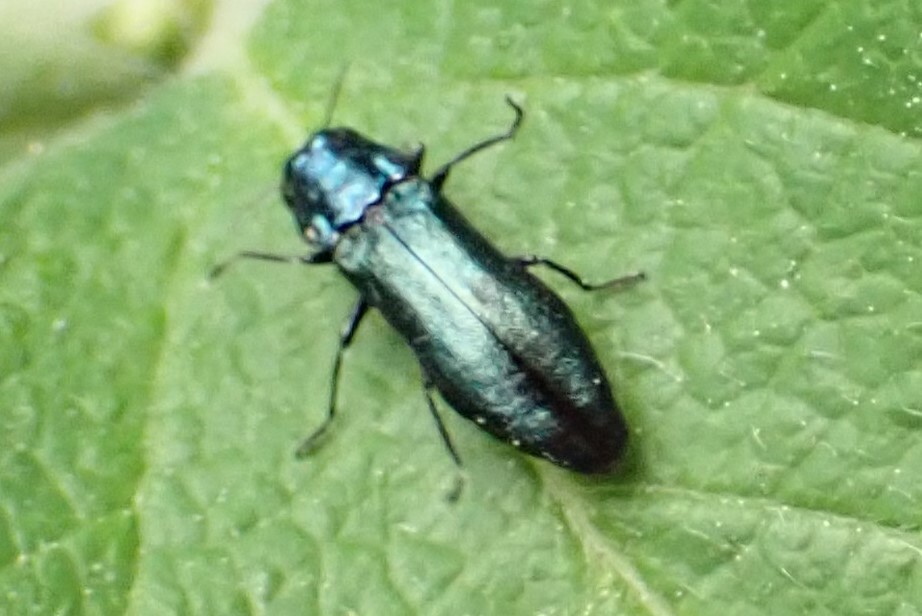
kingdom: Animalia
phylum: Arthropoda
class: Insecta
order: Coleoptera
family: Buprestidae
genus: Agrilus
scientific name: Agrilus cyanescens
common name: Bluish borer beetle
